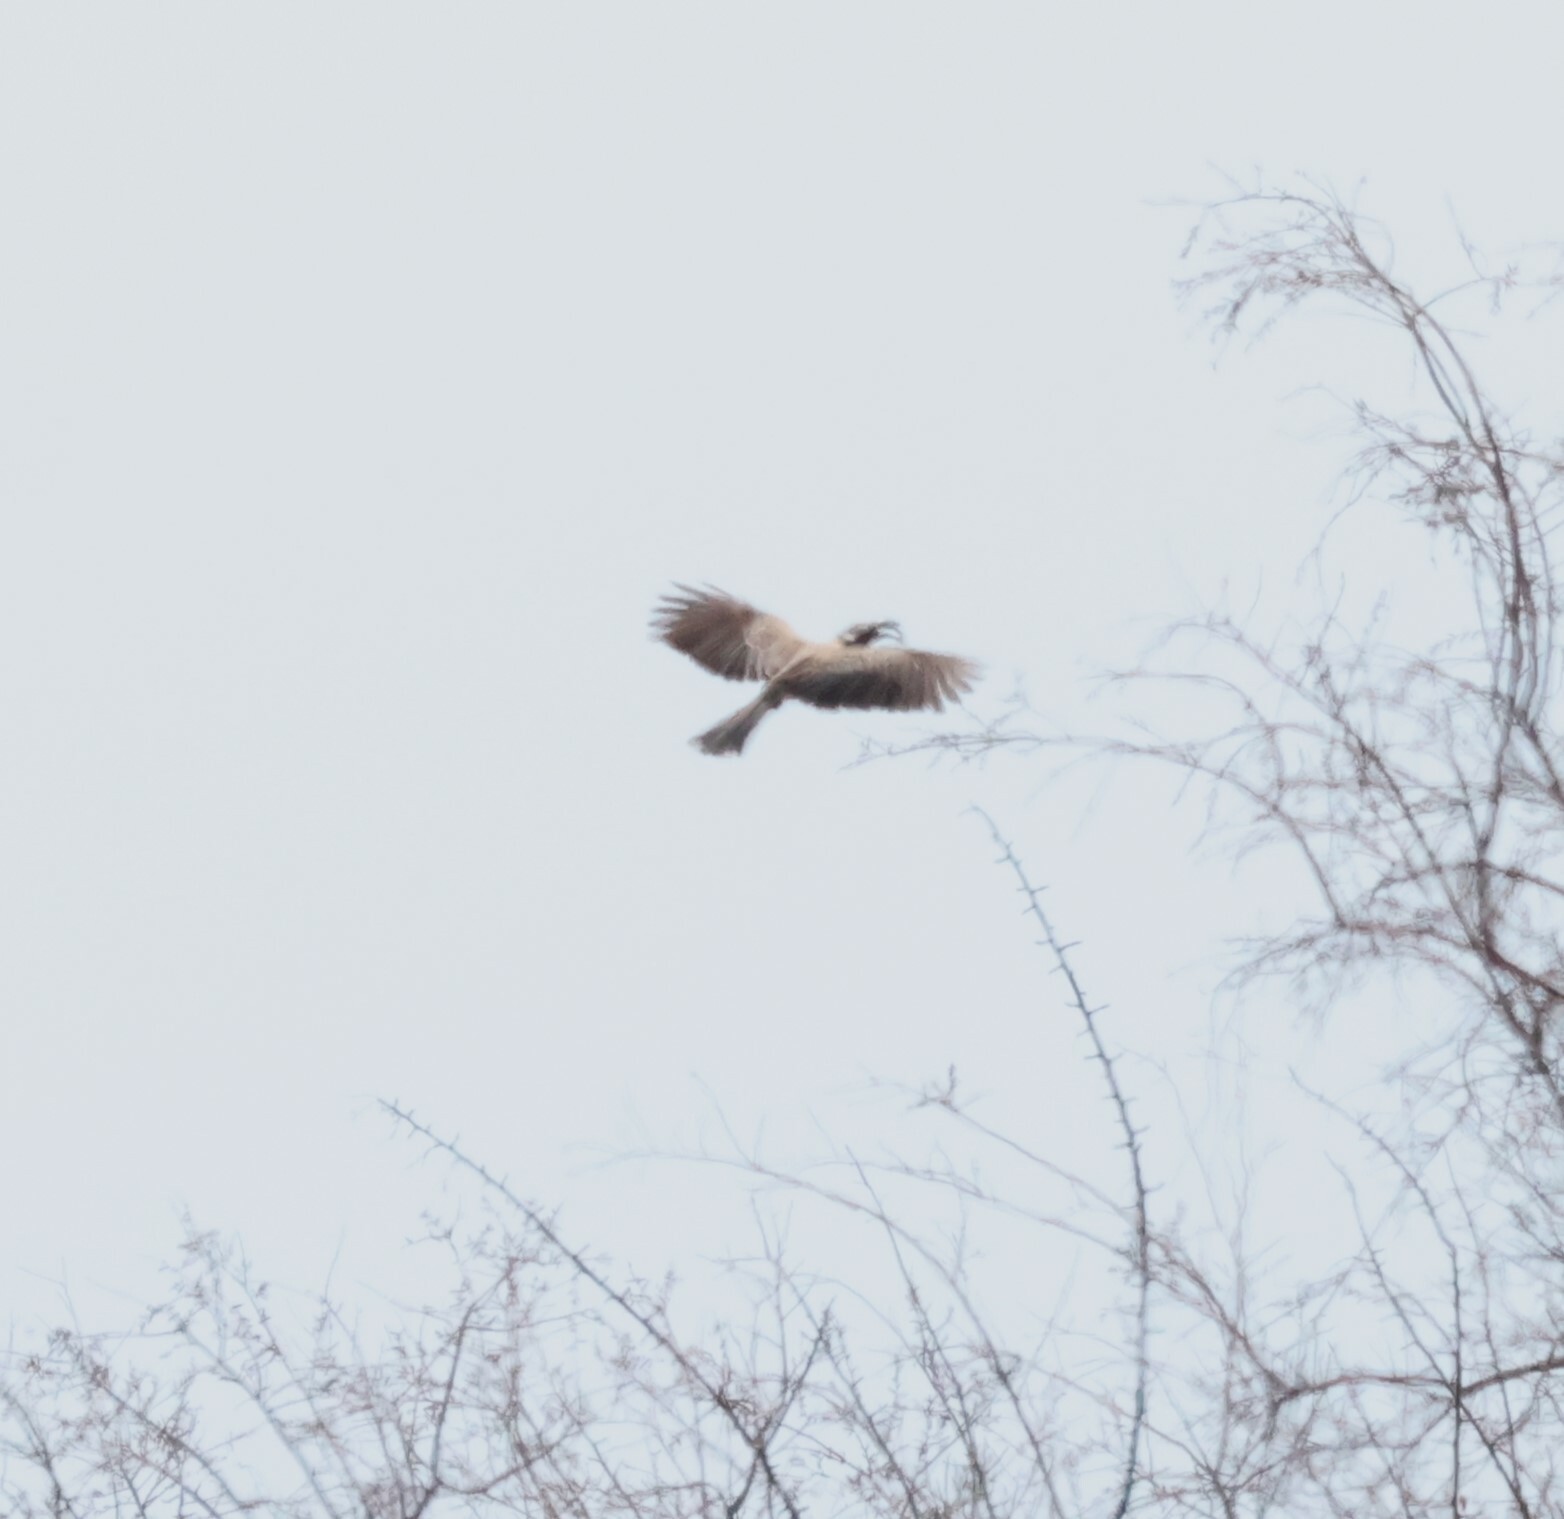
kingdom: Animalia
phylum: Chordata
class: Aves
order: Bucerotiformes
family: Bucerotidae
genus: Lophoceros
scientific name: Lophoceros nasutus
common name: African grey hornbill
